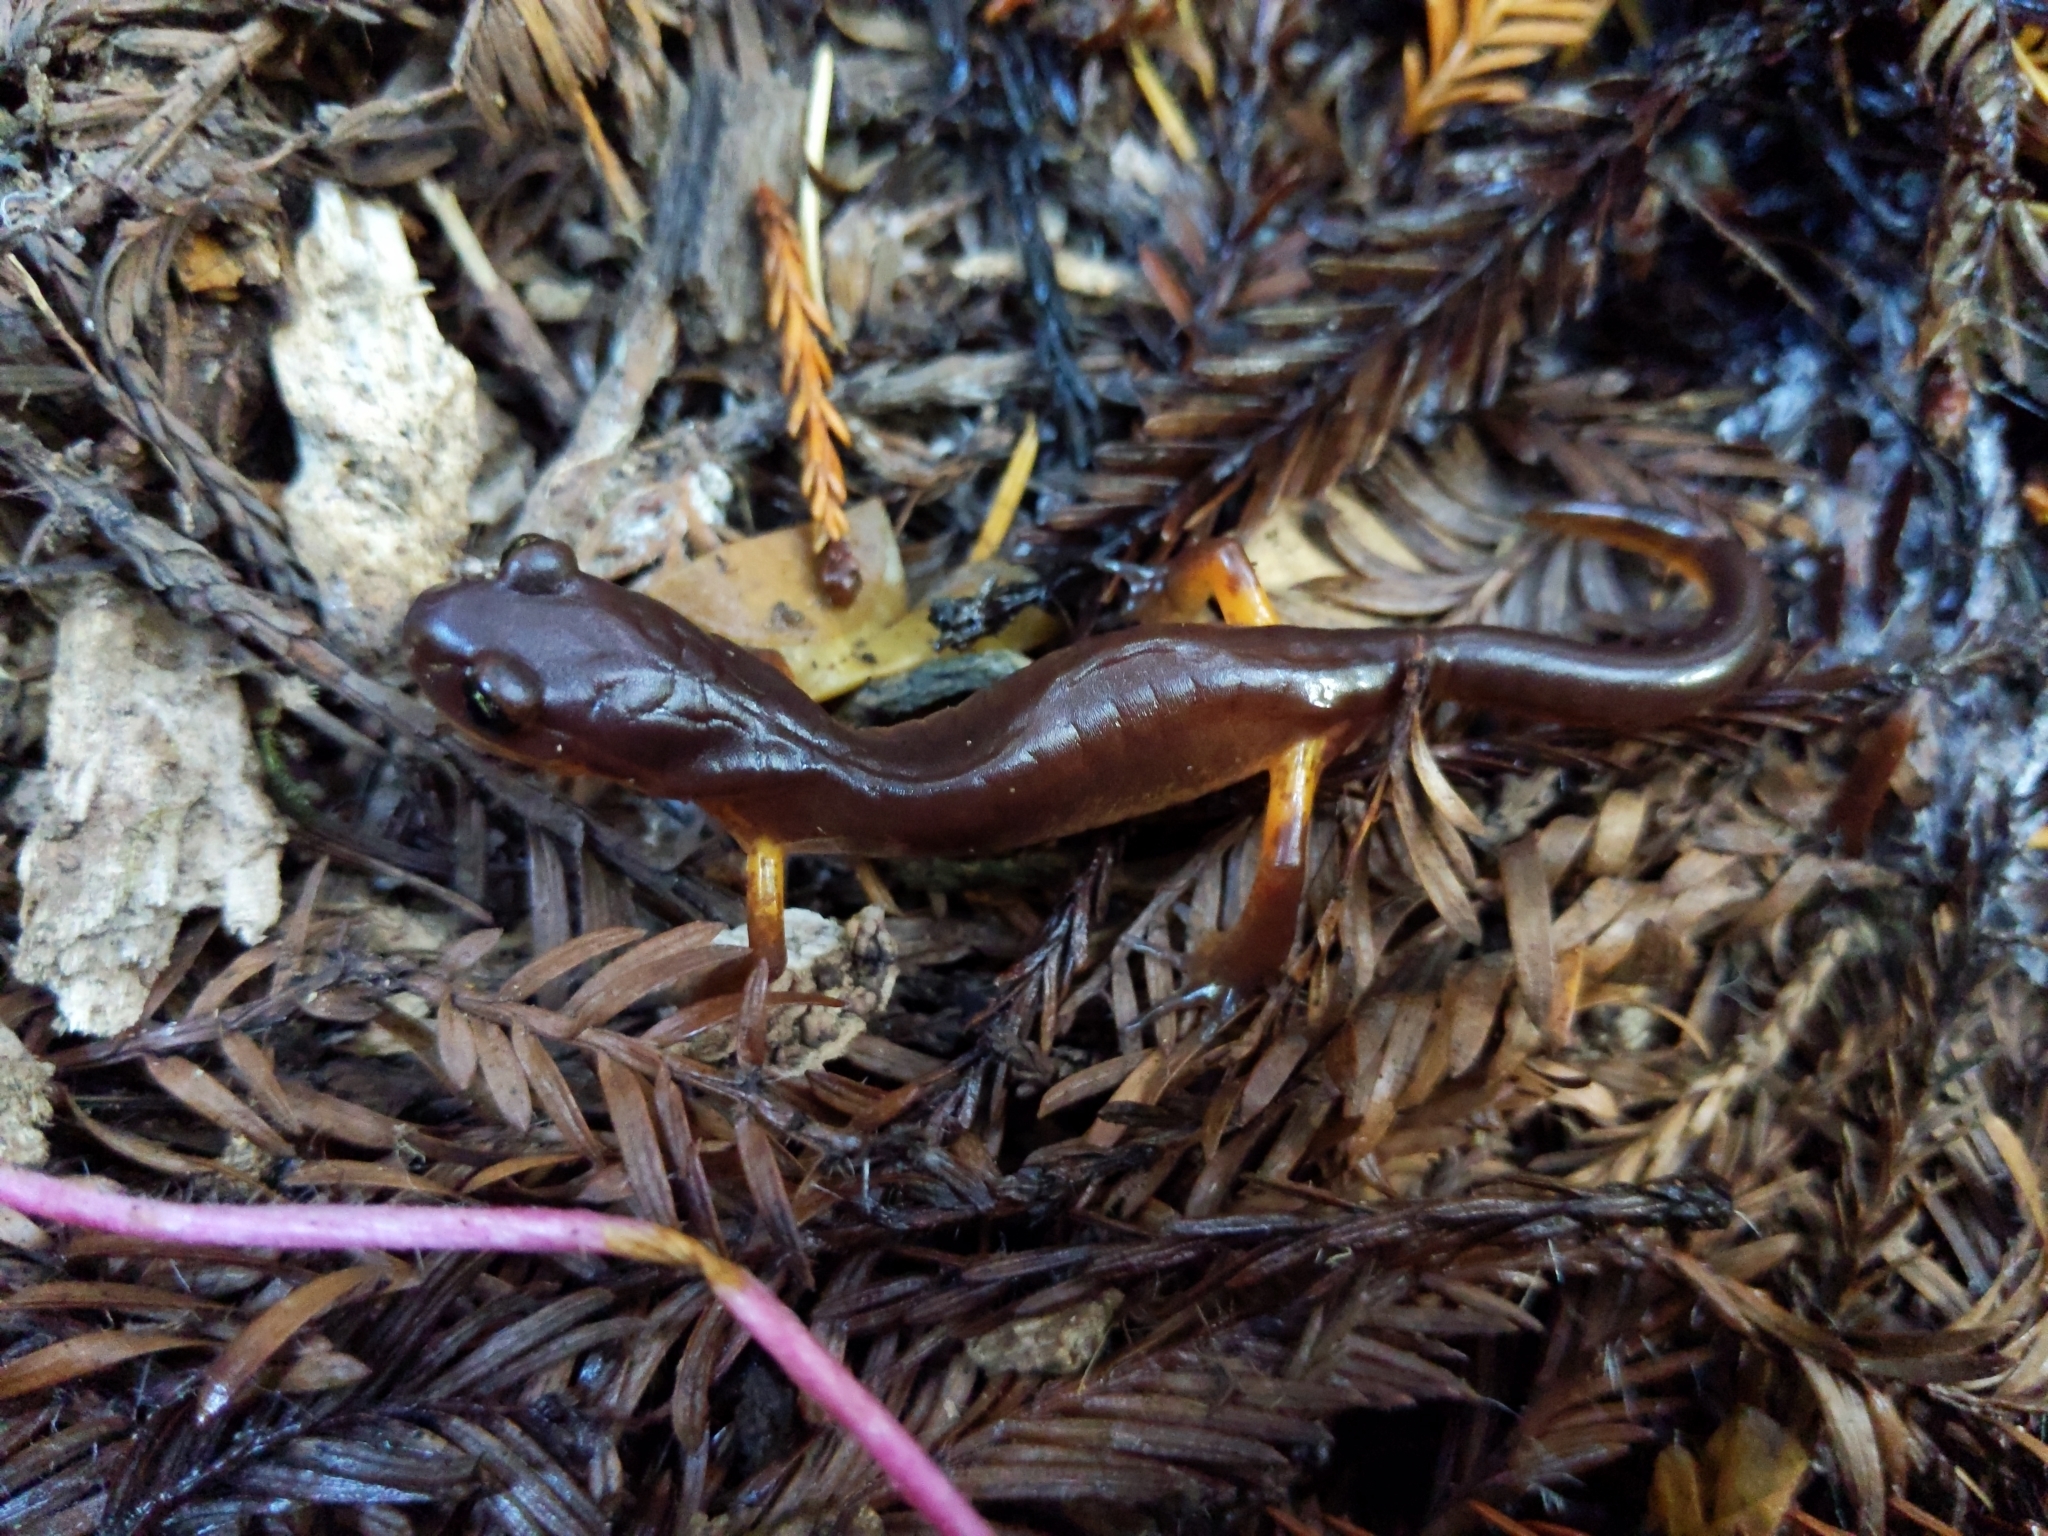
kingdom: Animalia
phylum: Chordata
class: Amphibia
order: Caudata
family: Plethodontidae
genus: Ensatina
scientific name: Ensatina eschscholtzii
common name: Ensatina
